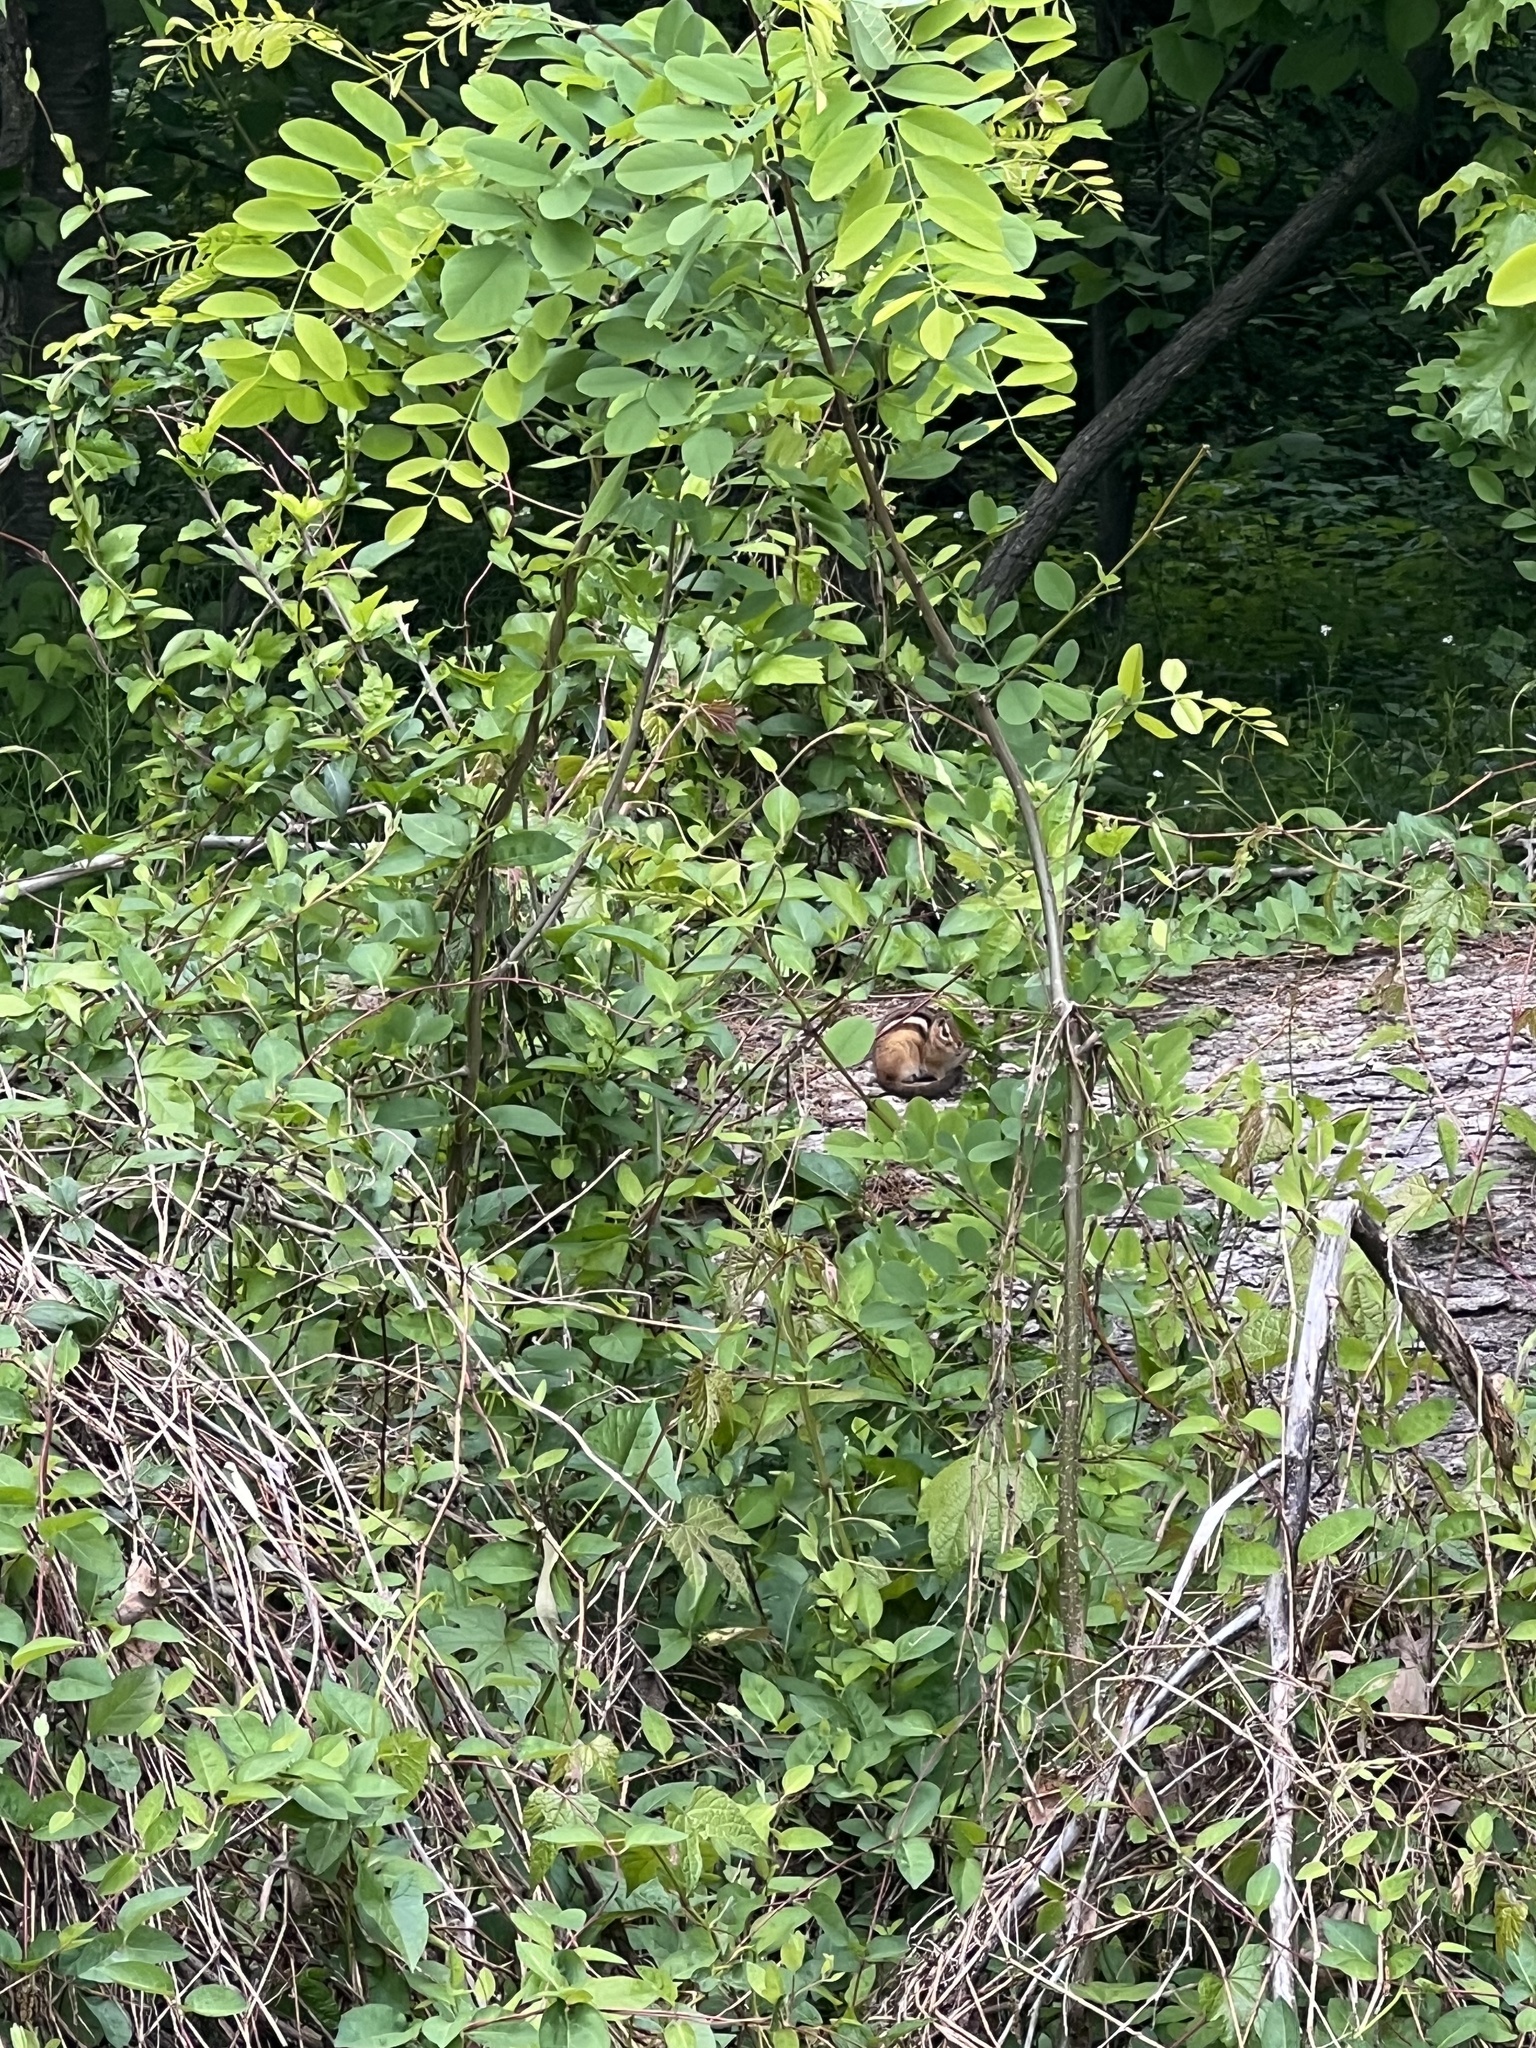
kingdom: Animalia
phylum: Chordata
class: Mammalia
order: Rodentia
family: Sciuridae
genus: Tamias
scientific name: Tamias striatus
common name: Eastern chipmunk
